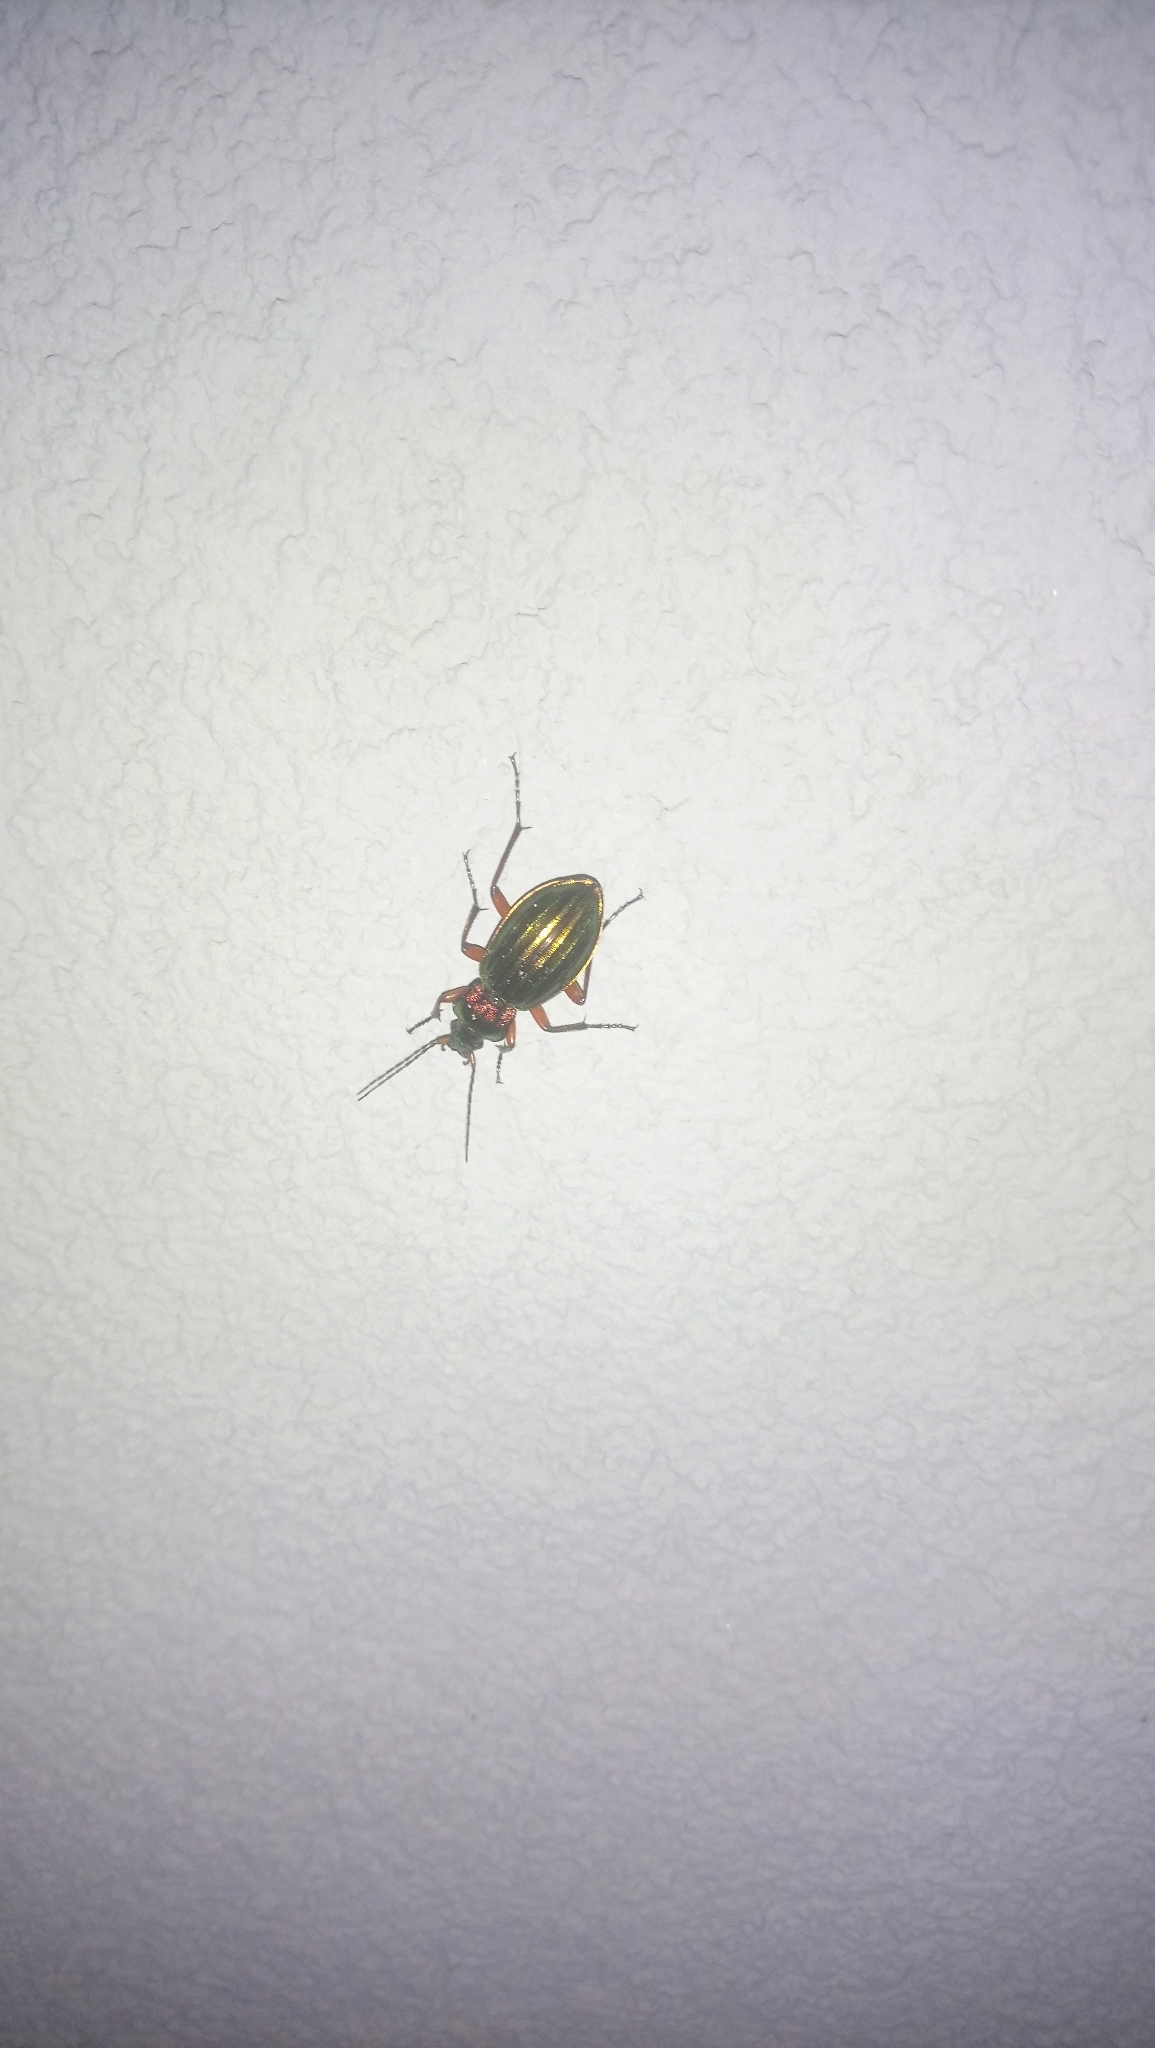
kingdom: Animalia
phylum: Arthropoda
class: Insecta
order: Coleoptera
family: Carabidae
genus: Carabus
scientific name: Carabus auronitens
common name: Carabus auronitens
